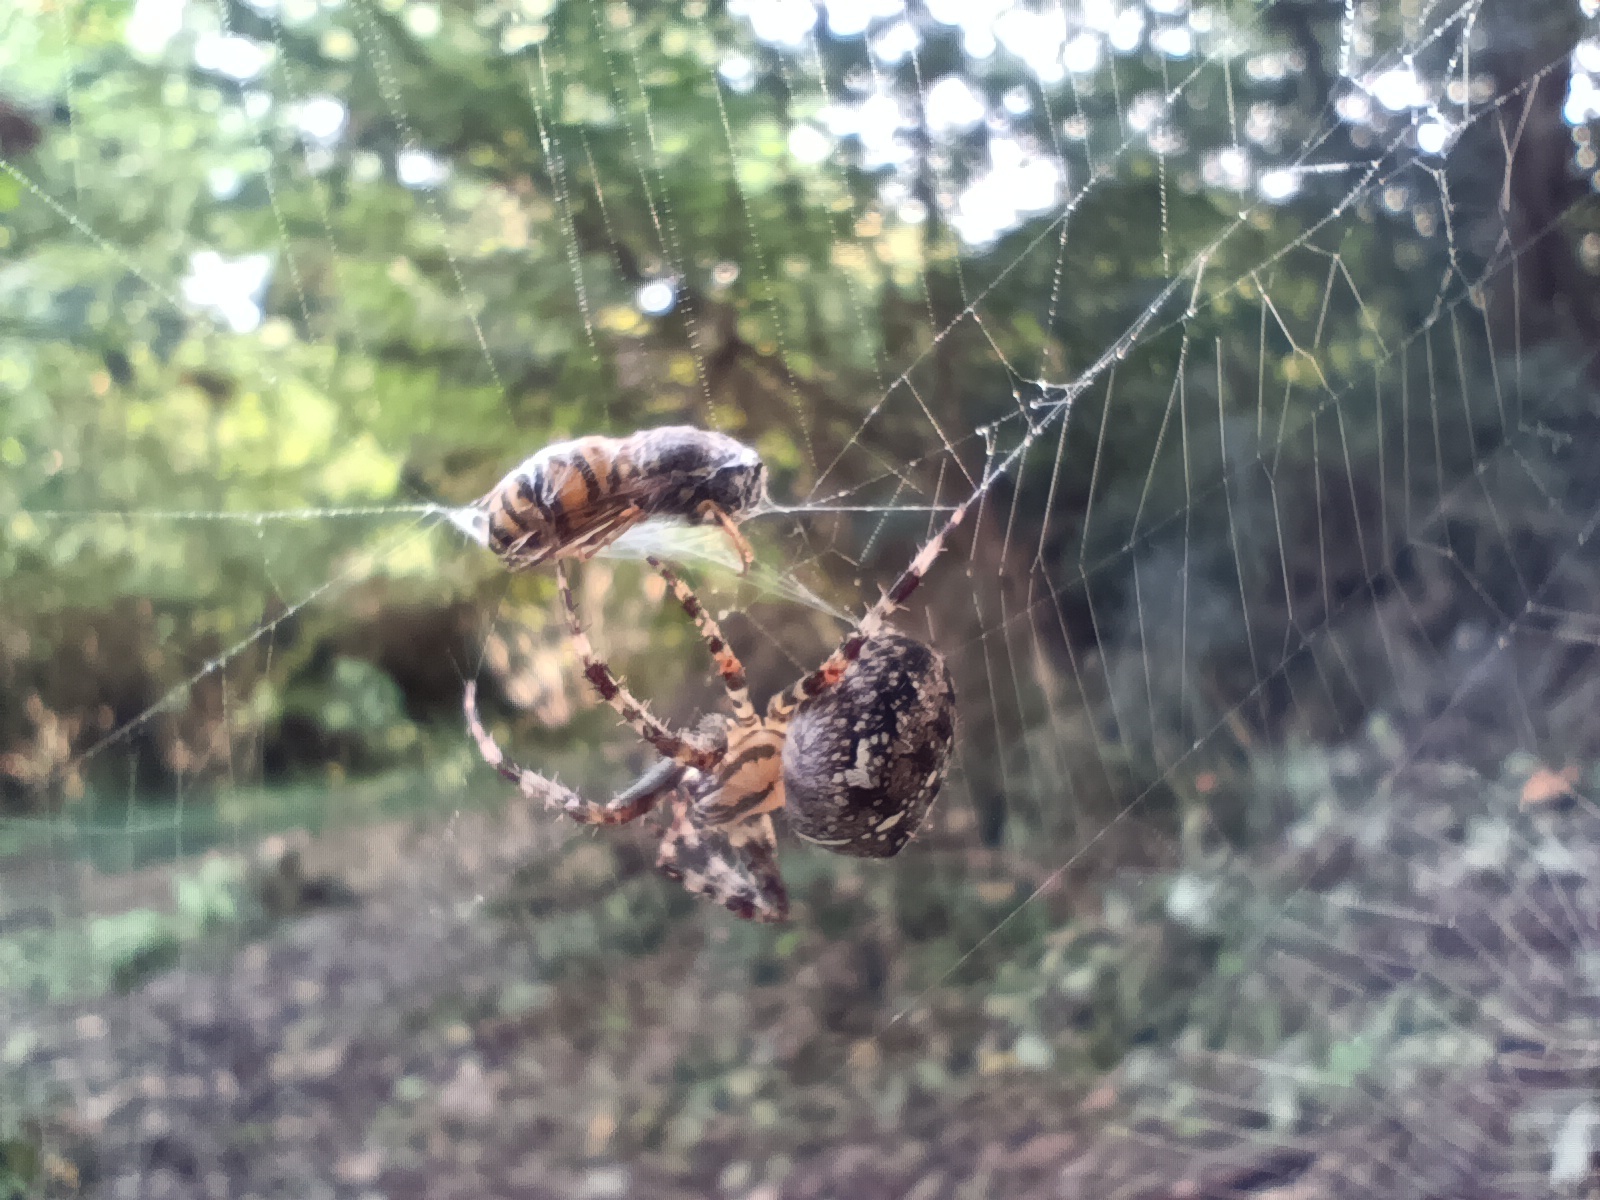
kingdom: Animalia
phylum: Arthropoda
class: Arachnida
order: Araneae
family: Araneidae
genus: Araneus
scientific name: Araneus diadematus
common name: Cross orbweaver
